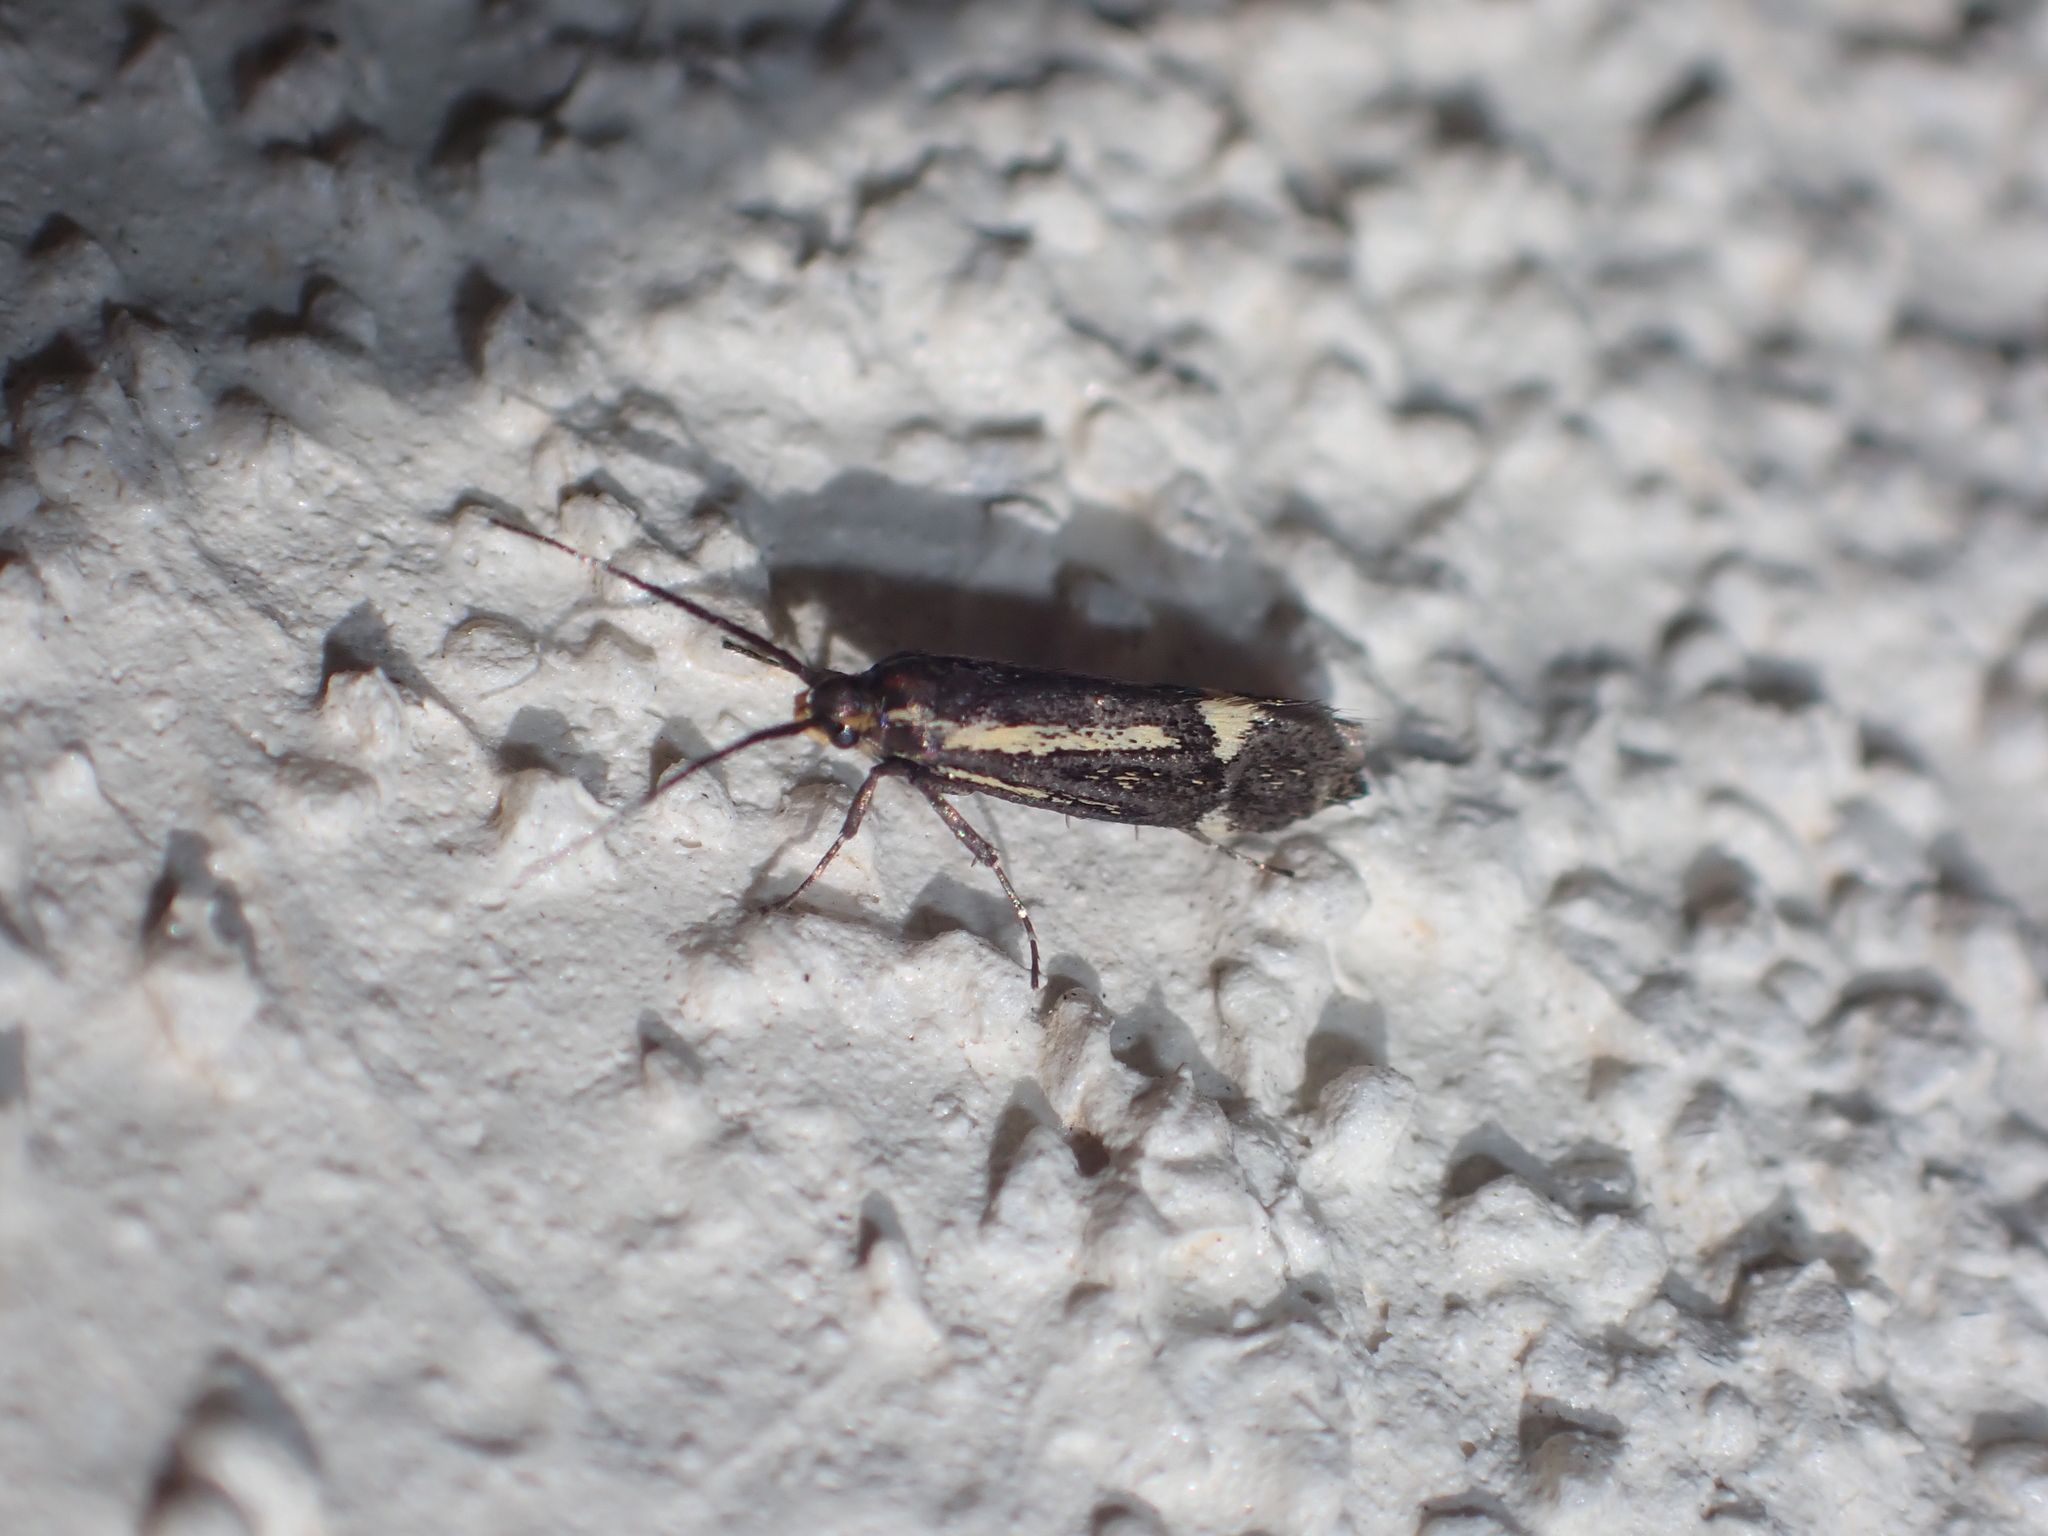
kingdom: Animalia
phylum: Arthropoda
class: Insecta
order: Lepidoptera
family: Oecophoridae
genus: Dafa
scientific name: Dafa Esperia sulphurella
